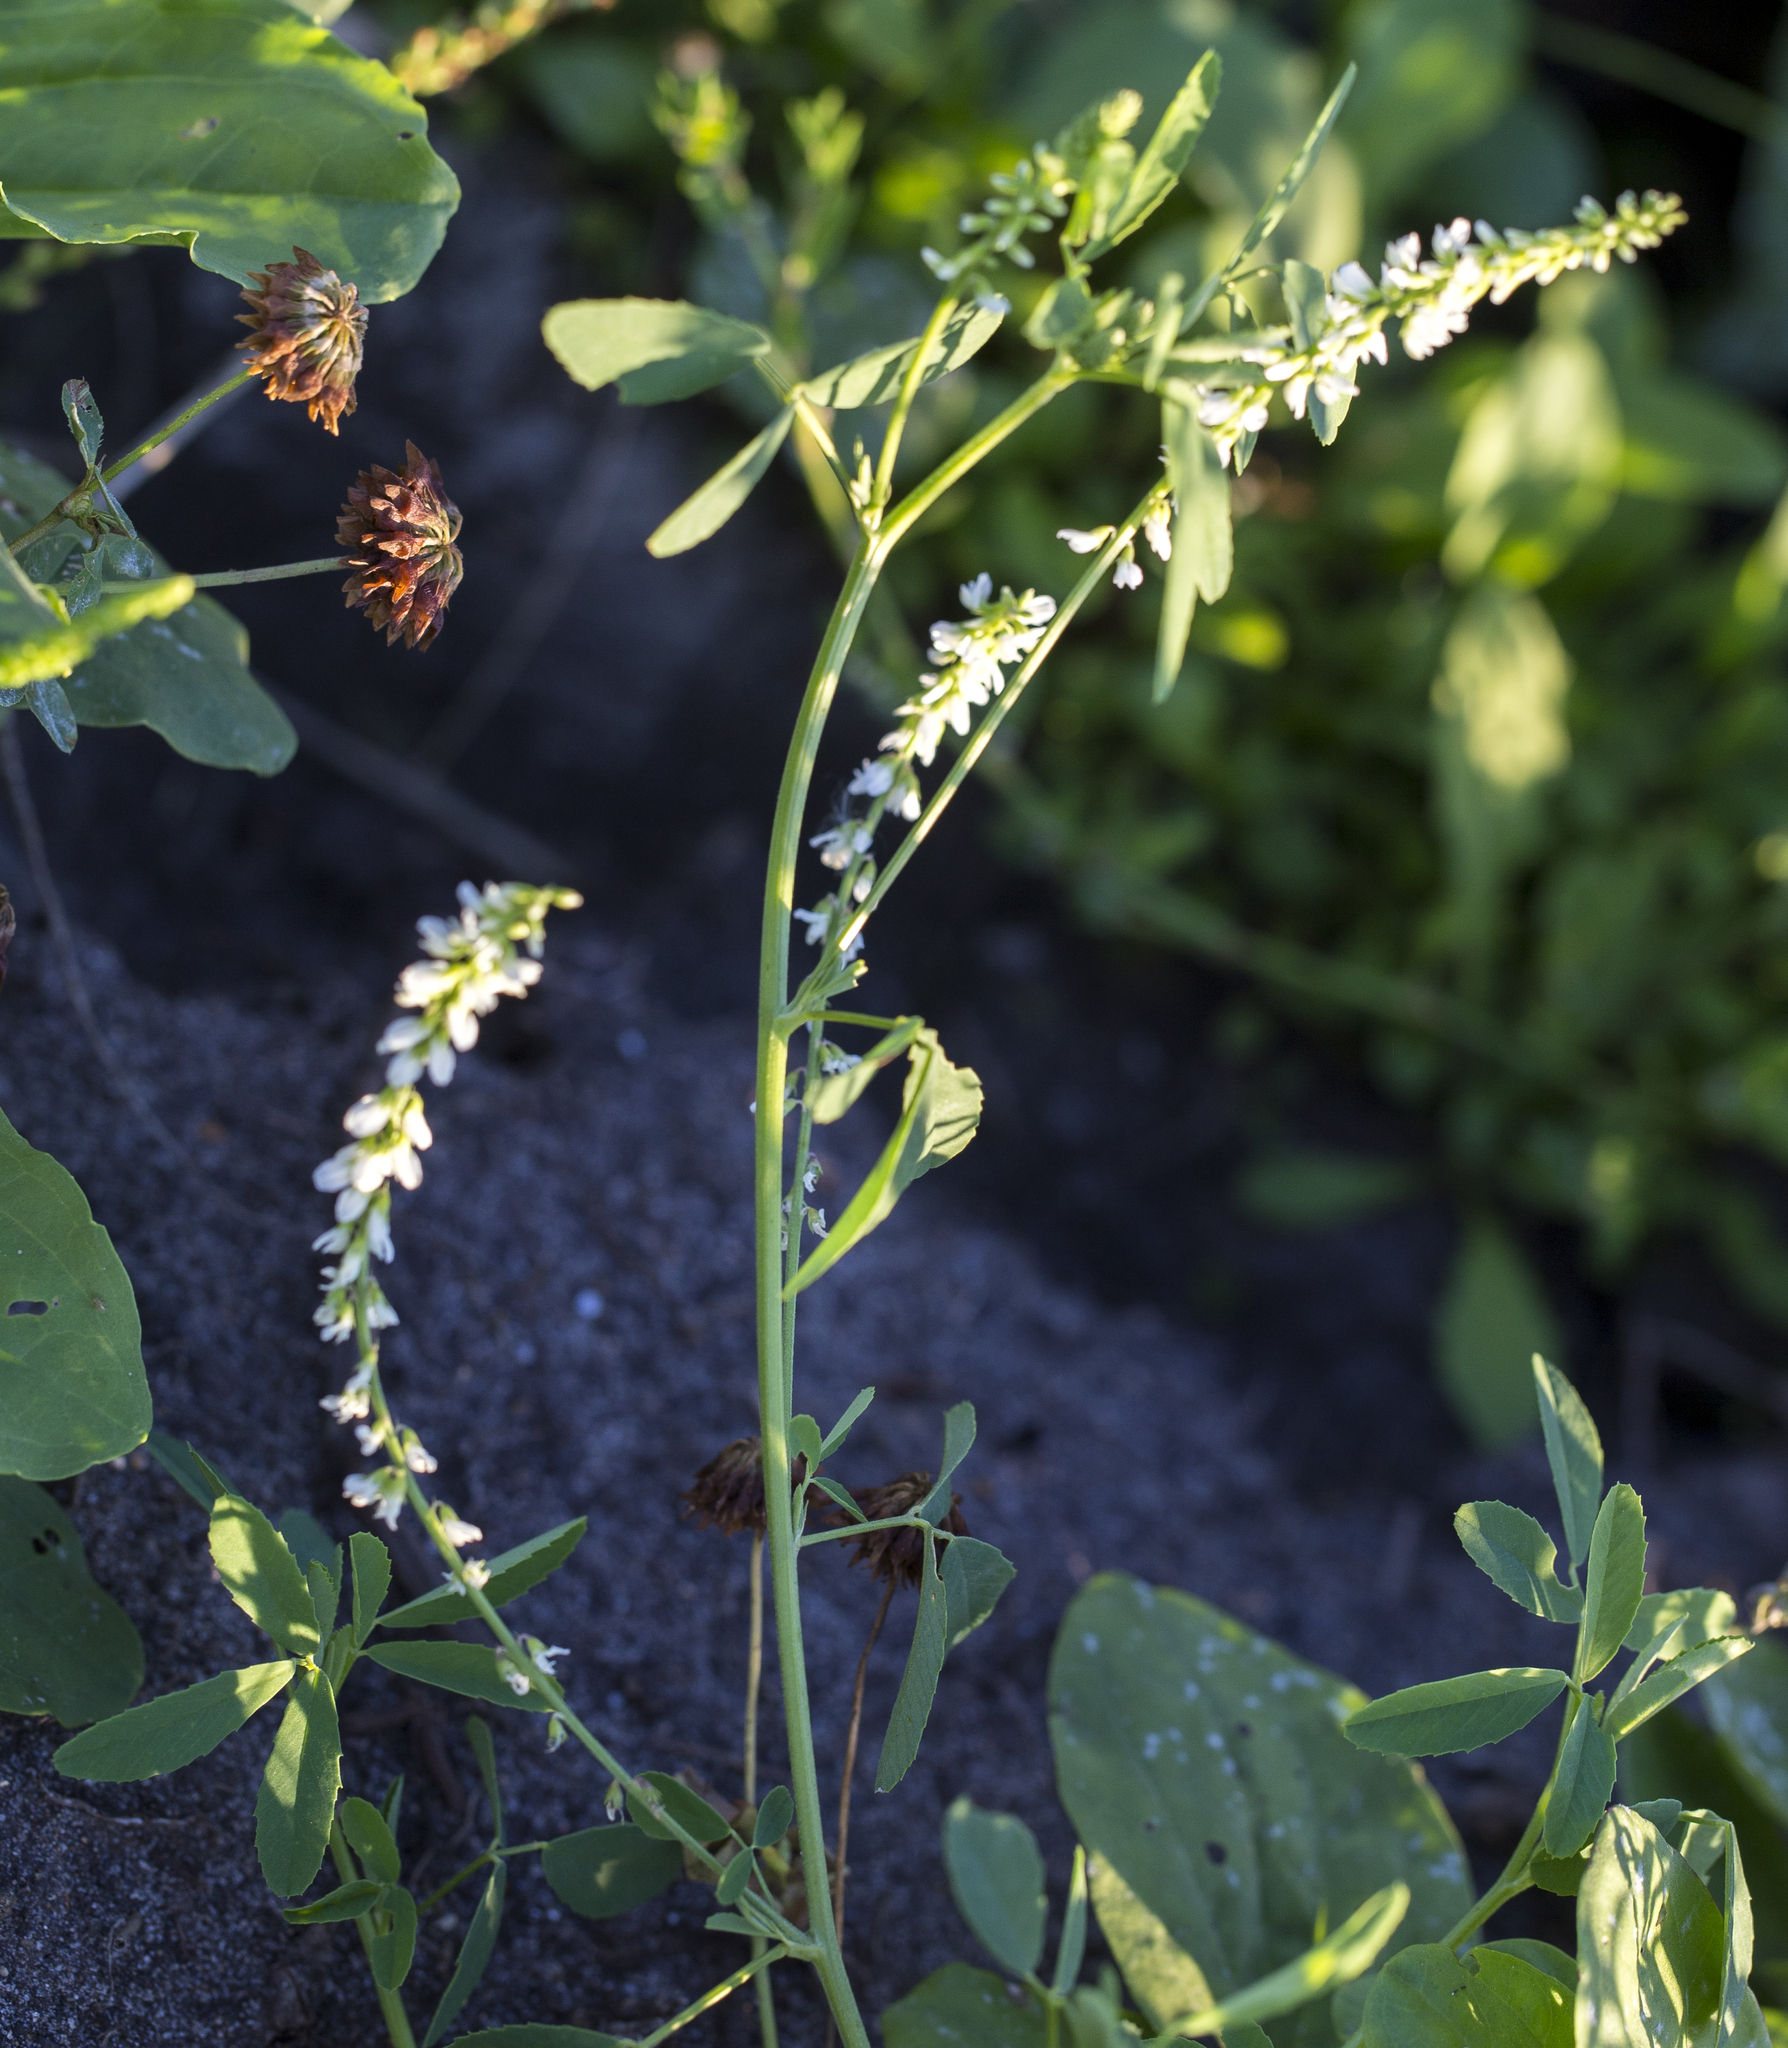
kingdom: Plantae
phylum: Tracheophyta
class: Magnoliopsida
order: Fabales
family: Fabaceae
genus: Melilotus
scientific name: Melilotus albus
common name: White melilot
